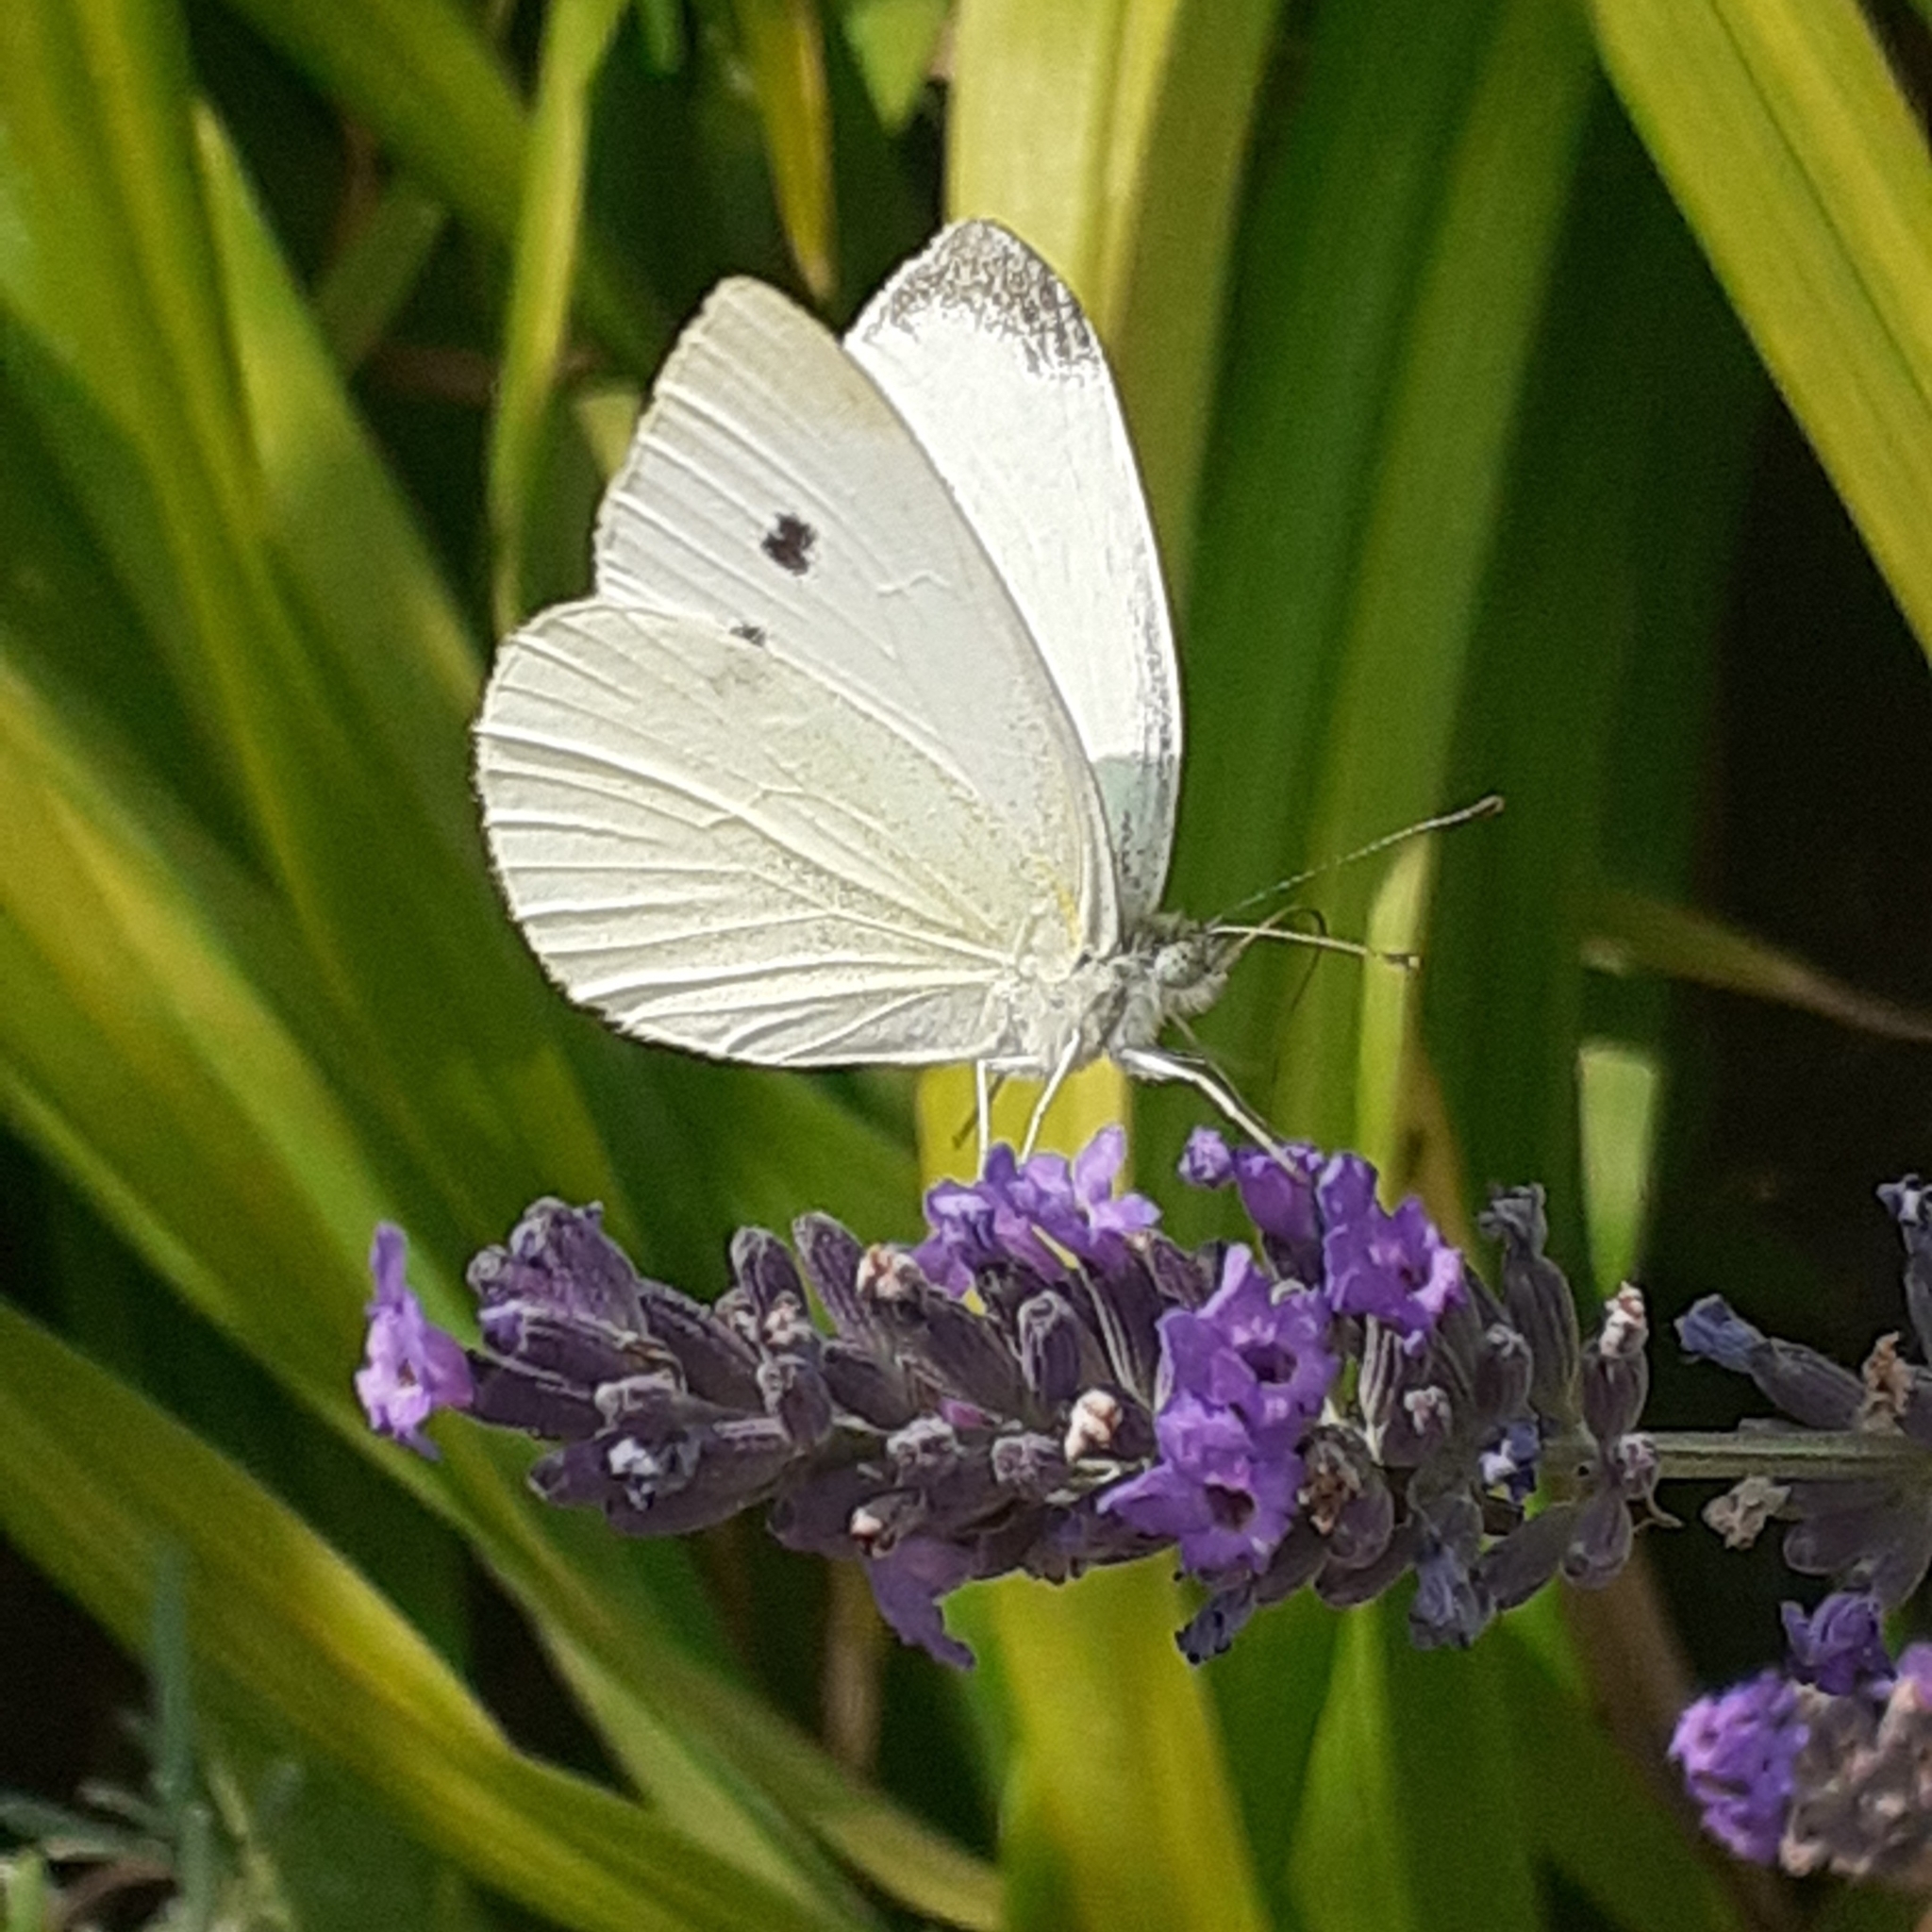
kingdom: Animalia
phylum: Arthropoda
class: Insecta
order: Lepidoptera
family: Pieridae
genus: Pieris
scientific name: Pieris rapae
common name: Small white
